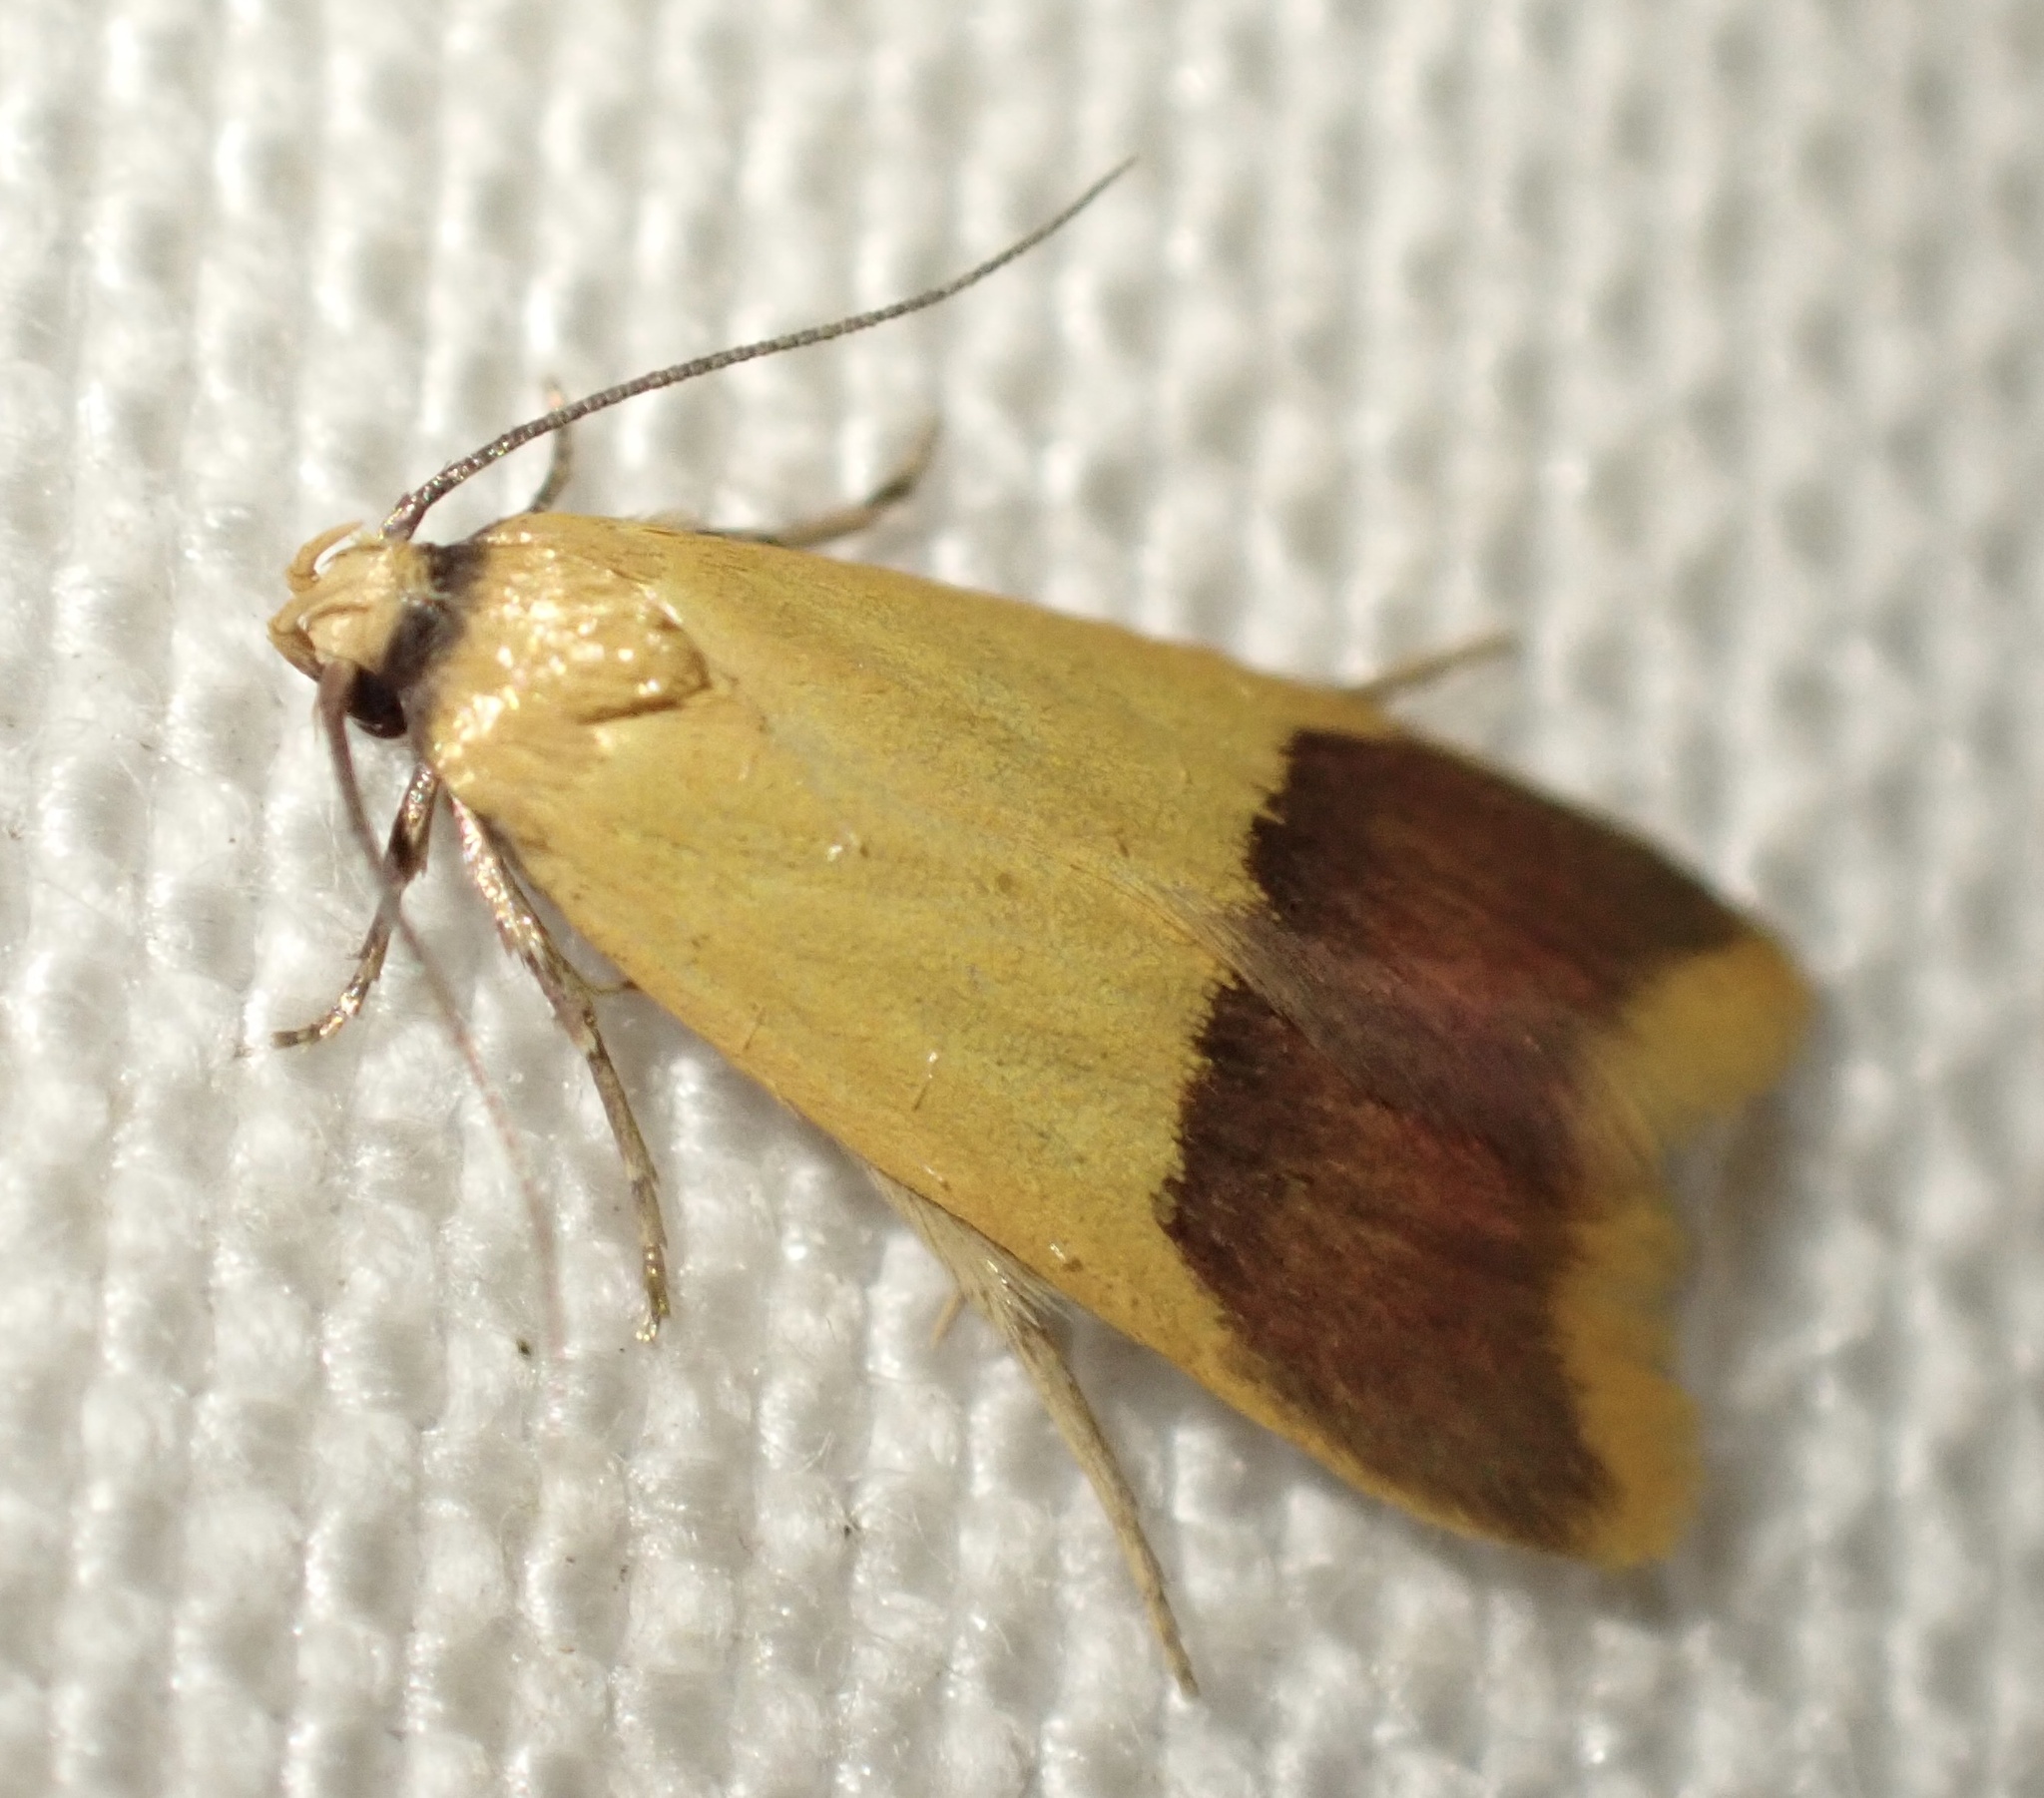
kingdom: Animalia
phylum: Arthropoda
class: Insecta
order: Lepidoptera
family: Oecophoridae
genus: Tachystola
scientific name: Tachystola thiasotis
